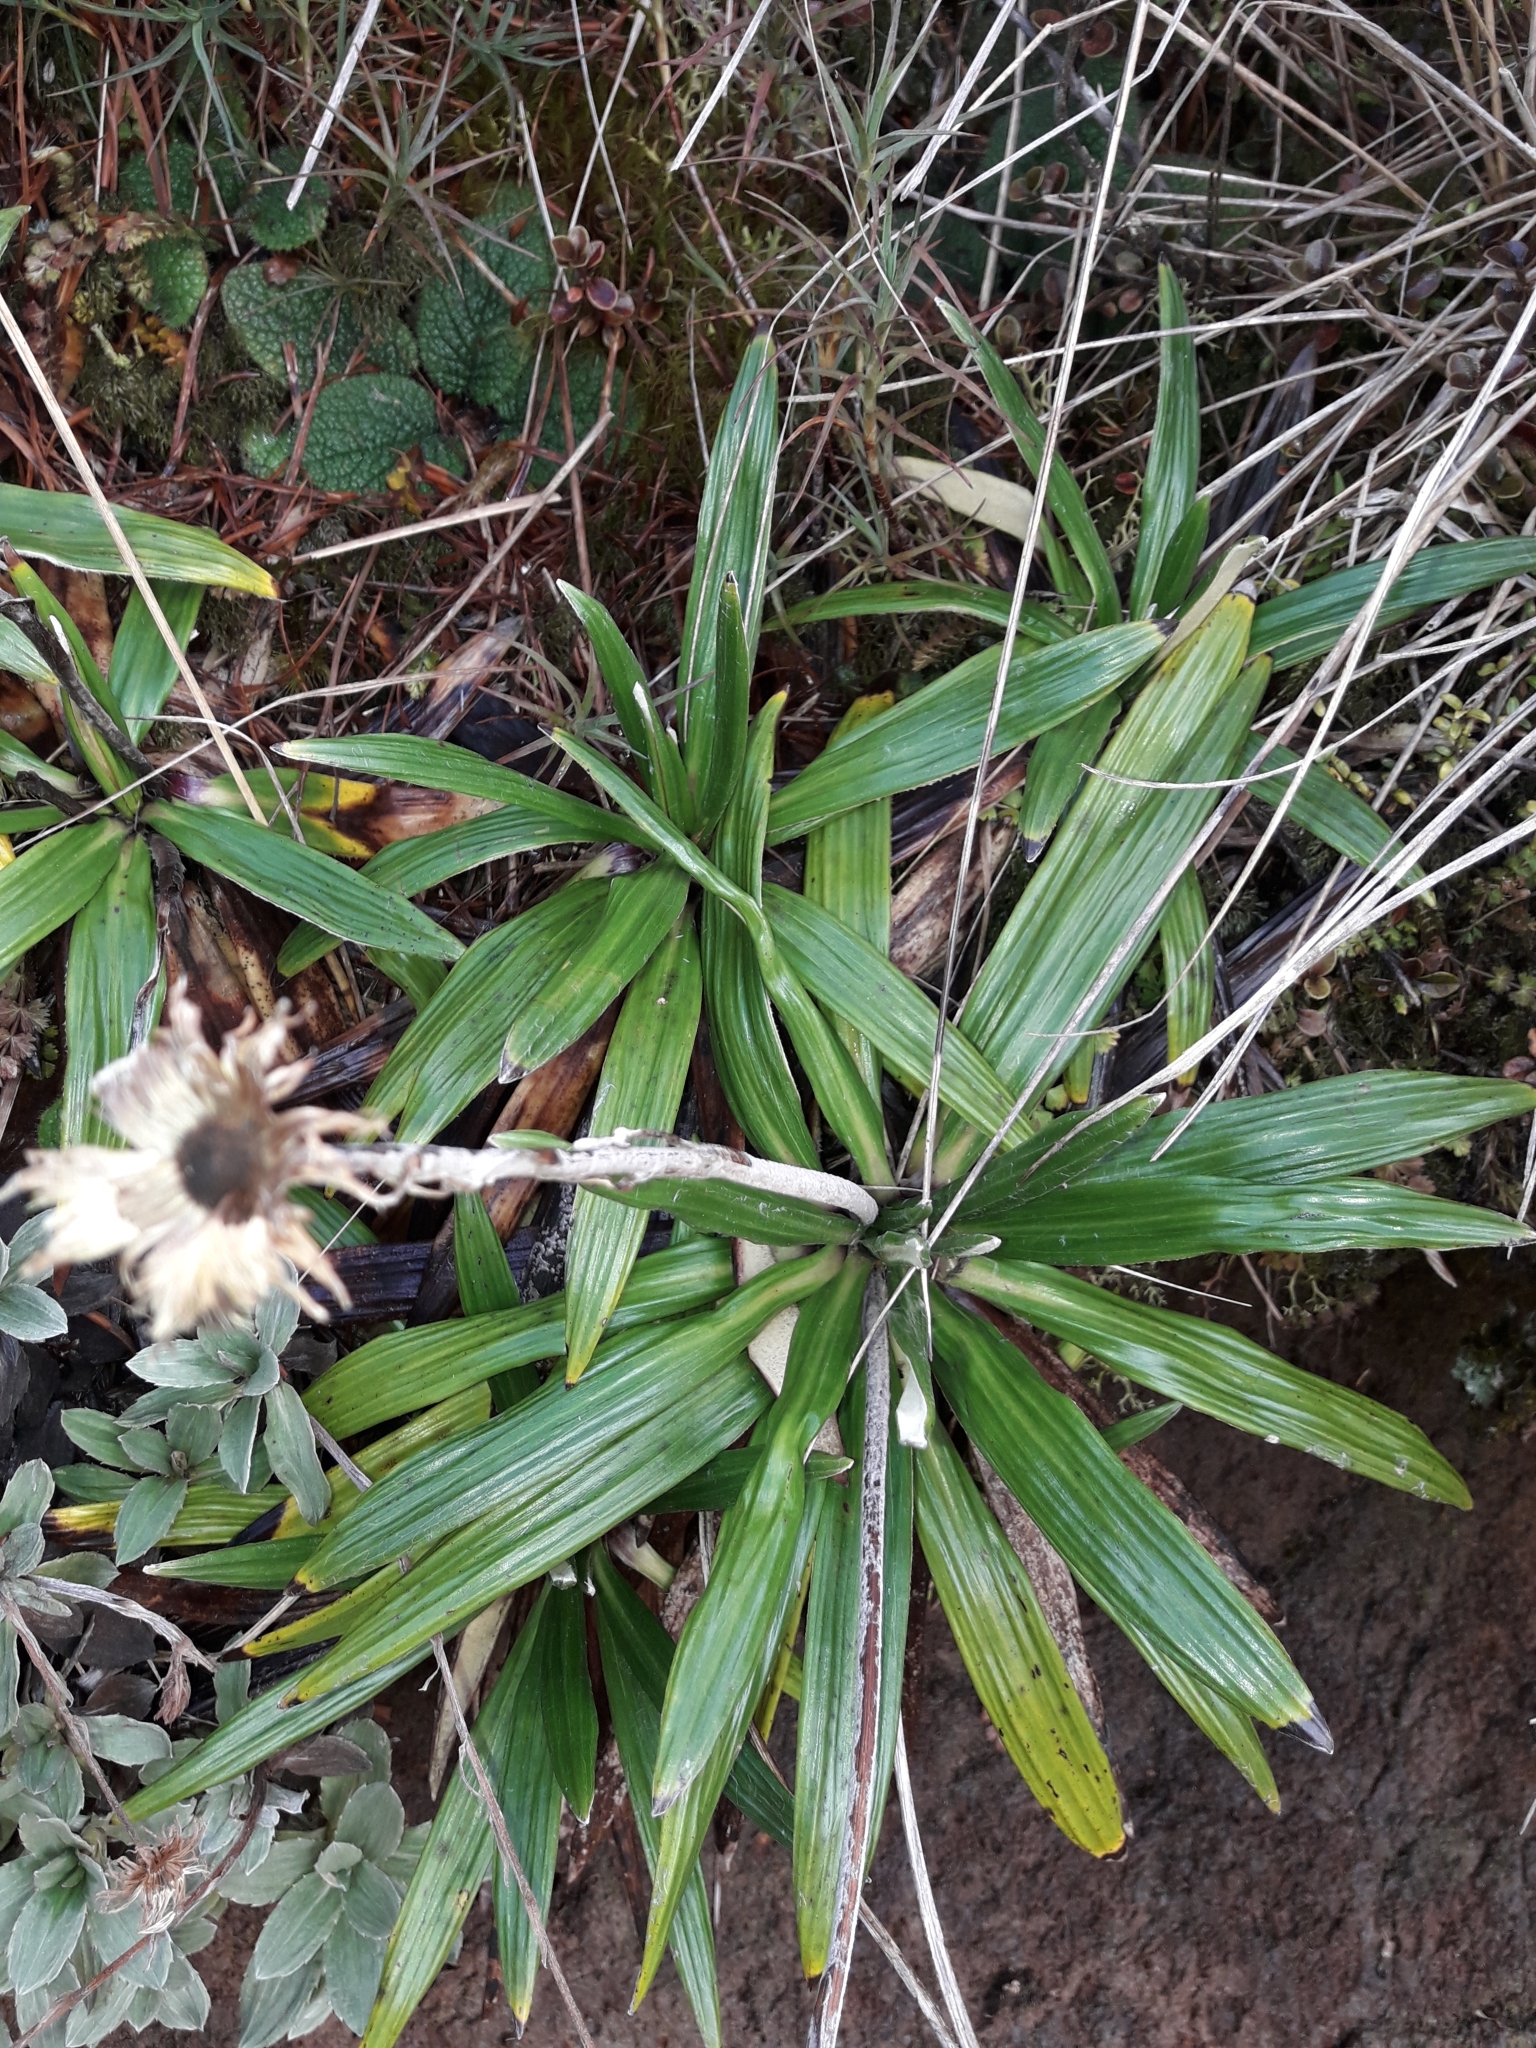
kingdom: Plantae
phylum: Tracheophyta
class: Magnoliopsida
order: Asterales
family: Asteraceae
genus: Celmisia
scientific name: Celmisia spectabilis
